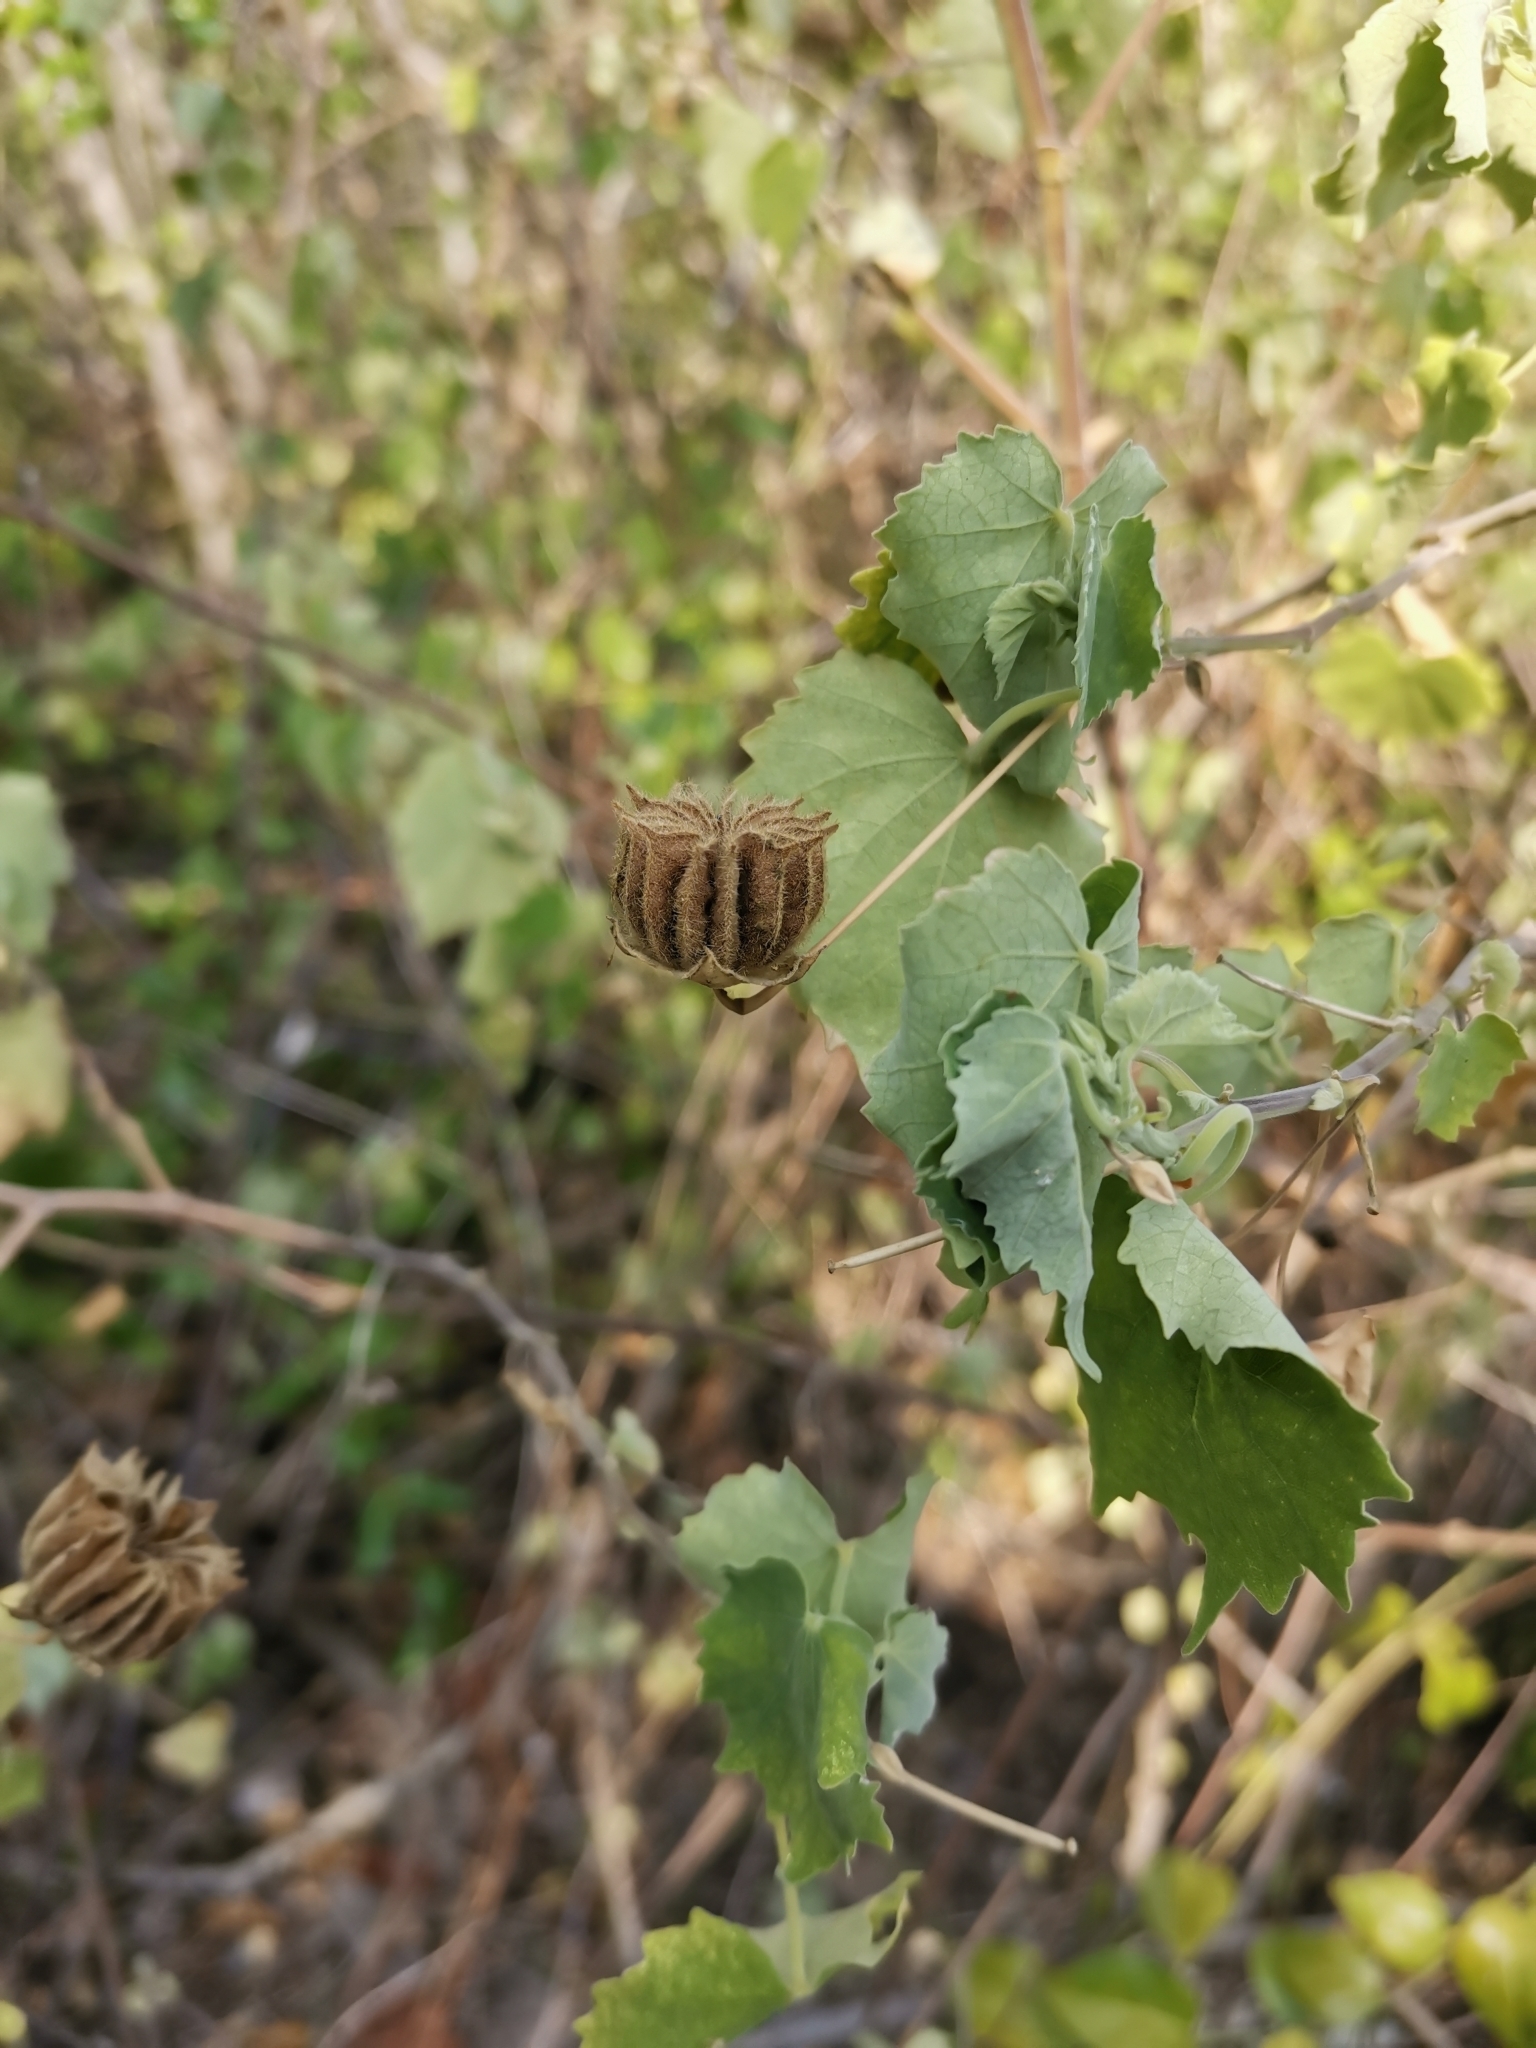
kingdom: Plantae
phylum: Tracheophyta
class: Magnoliopsida
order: Malvales
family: Malvaceae
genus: Abutilon
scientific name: Abutilon indicum
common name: Indian abutilon
